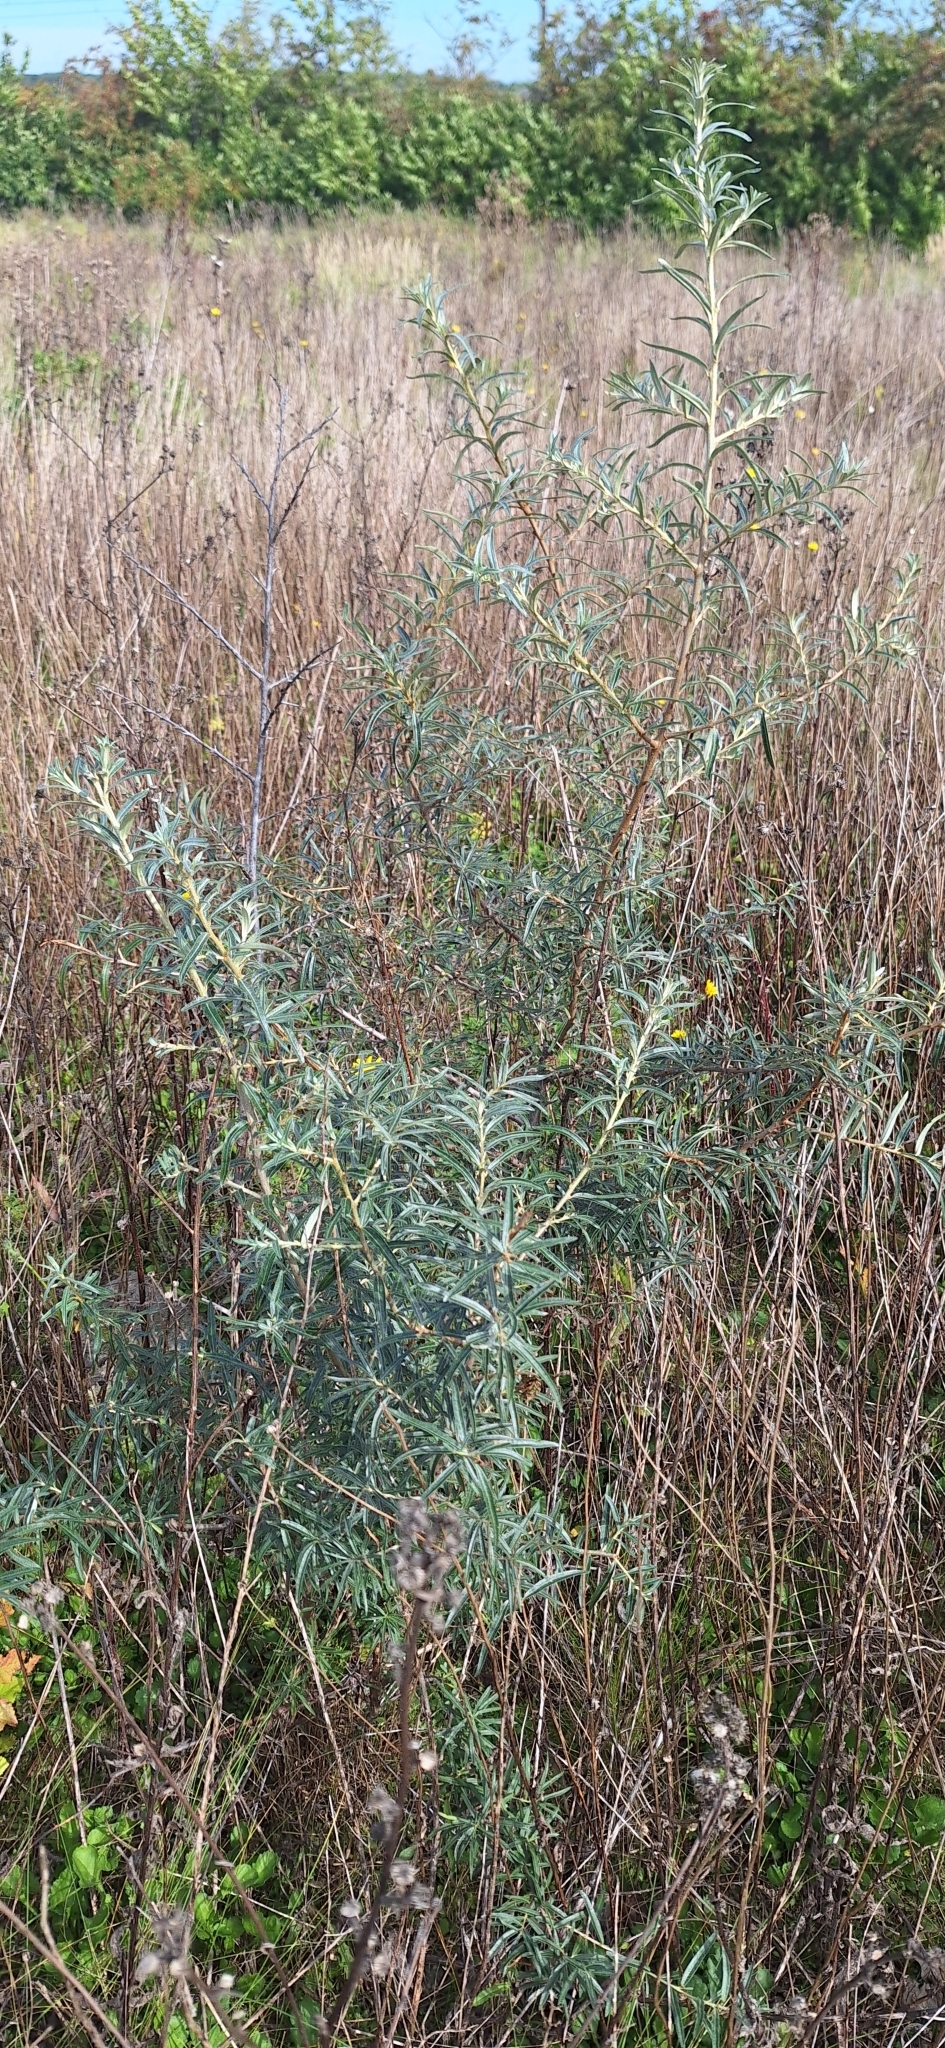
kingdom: Plantae
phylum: Tracheophyta
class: Magnoliopsida
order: Rosales
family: Elaeagnaceae
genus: Hippophae
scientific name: Hippophae rhamnoides
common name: Sea-buckthorn
